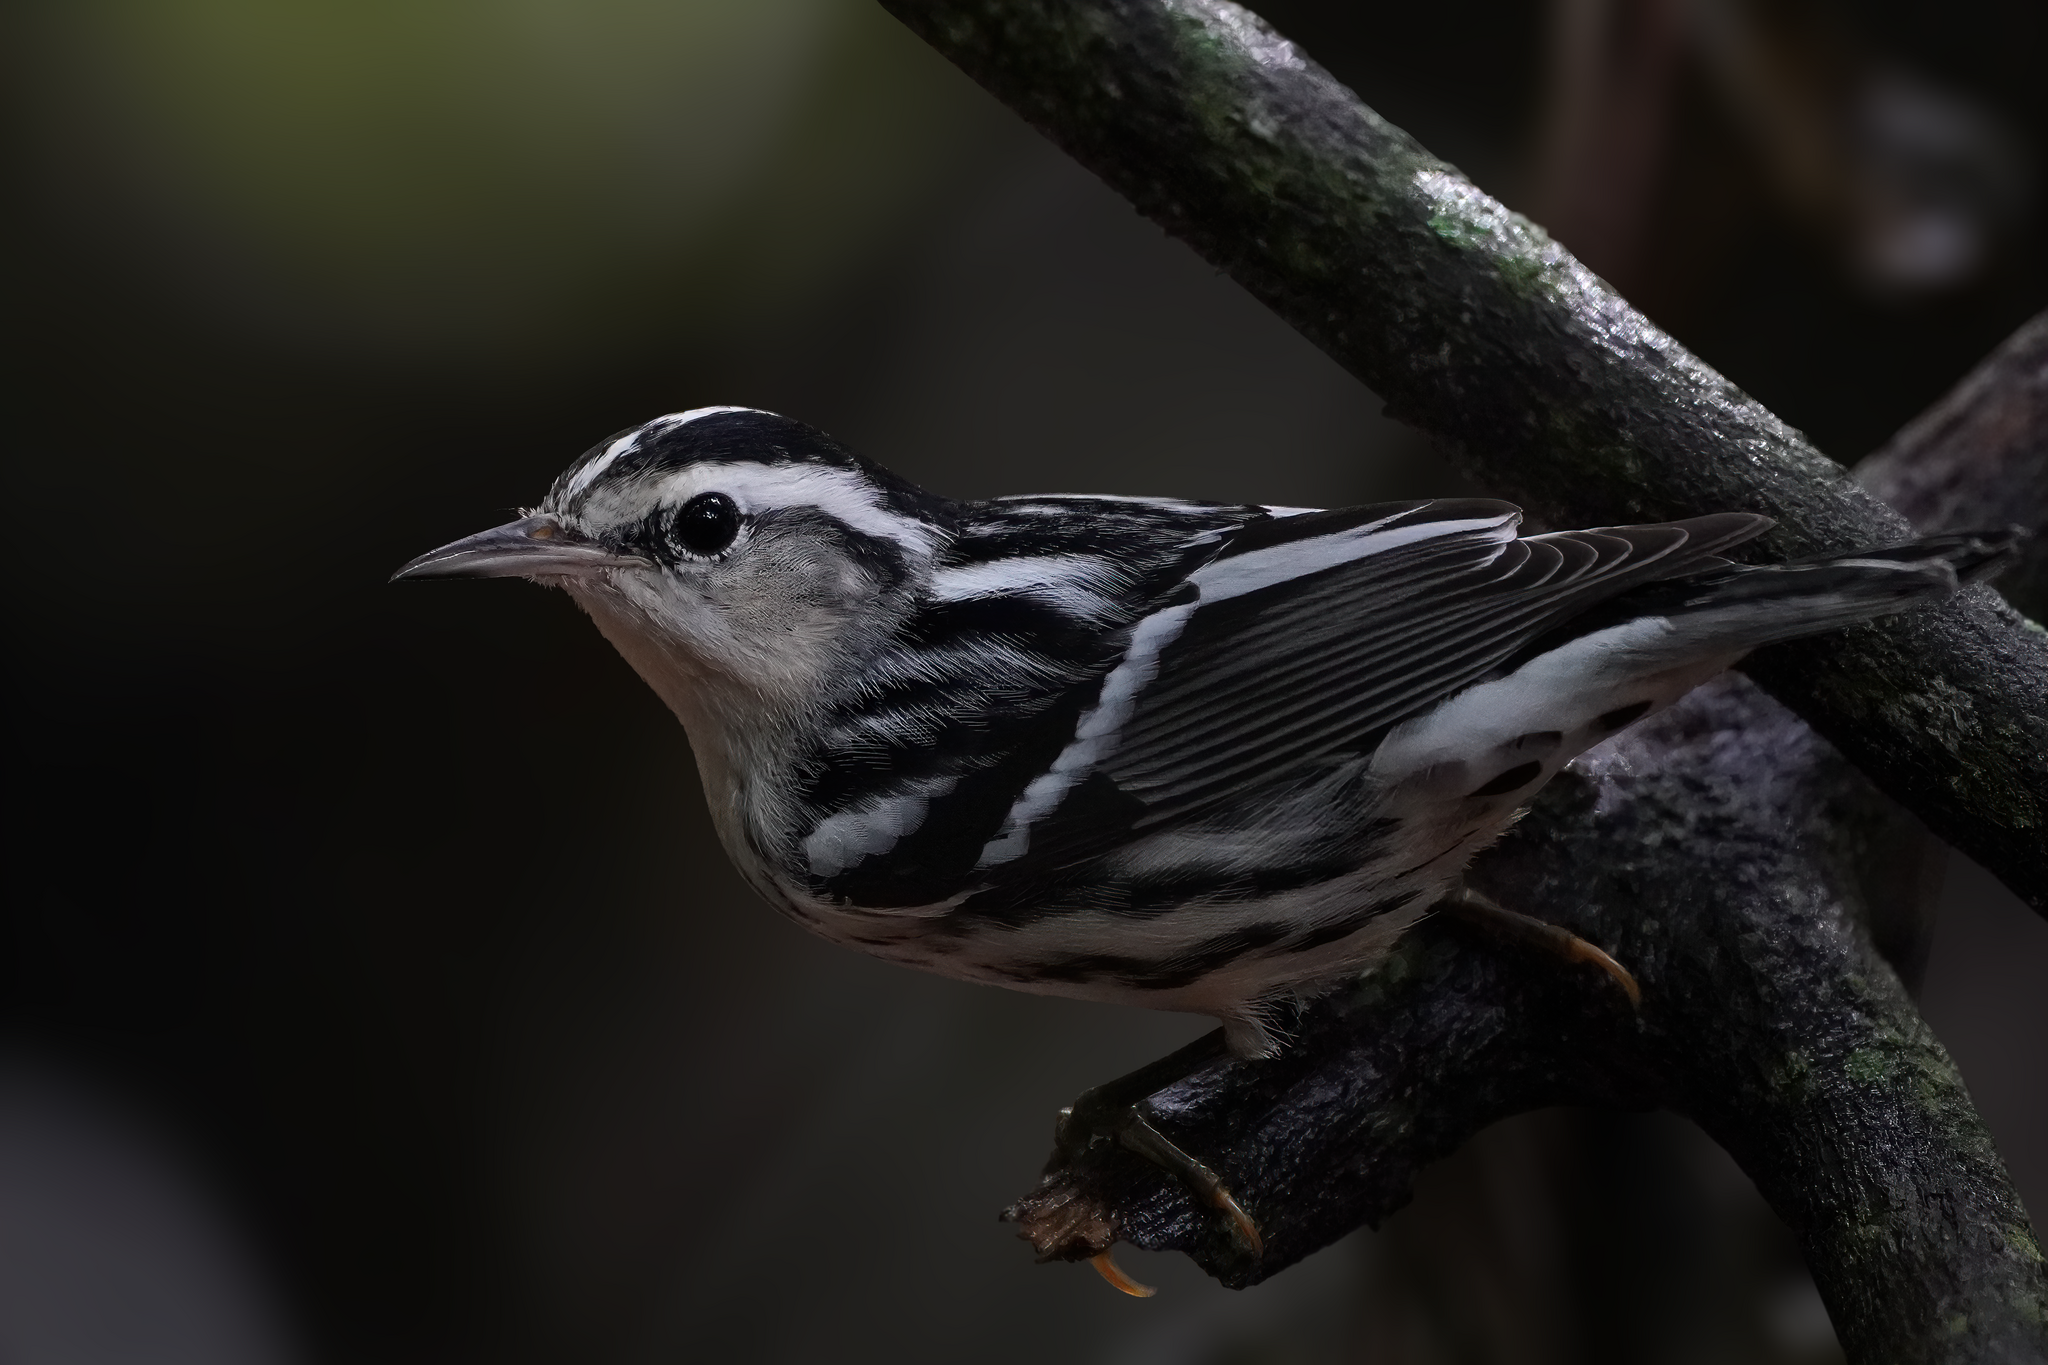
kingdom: Animalia
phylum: Chordata
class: Aves
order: Passeriformes
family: Parulidae
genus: Mniotilta
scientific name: Mniotilta varia
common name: Black-and-white warbler
